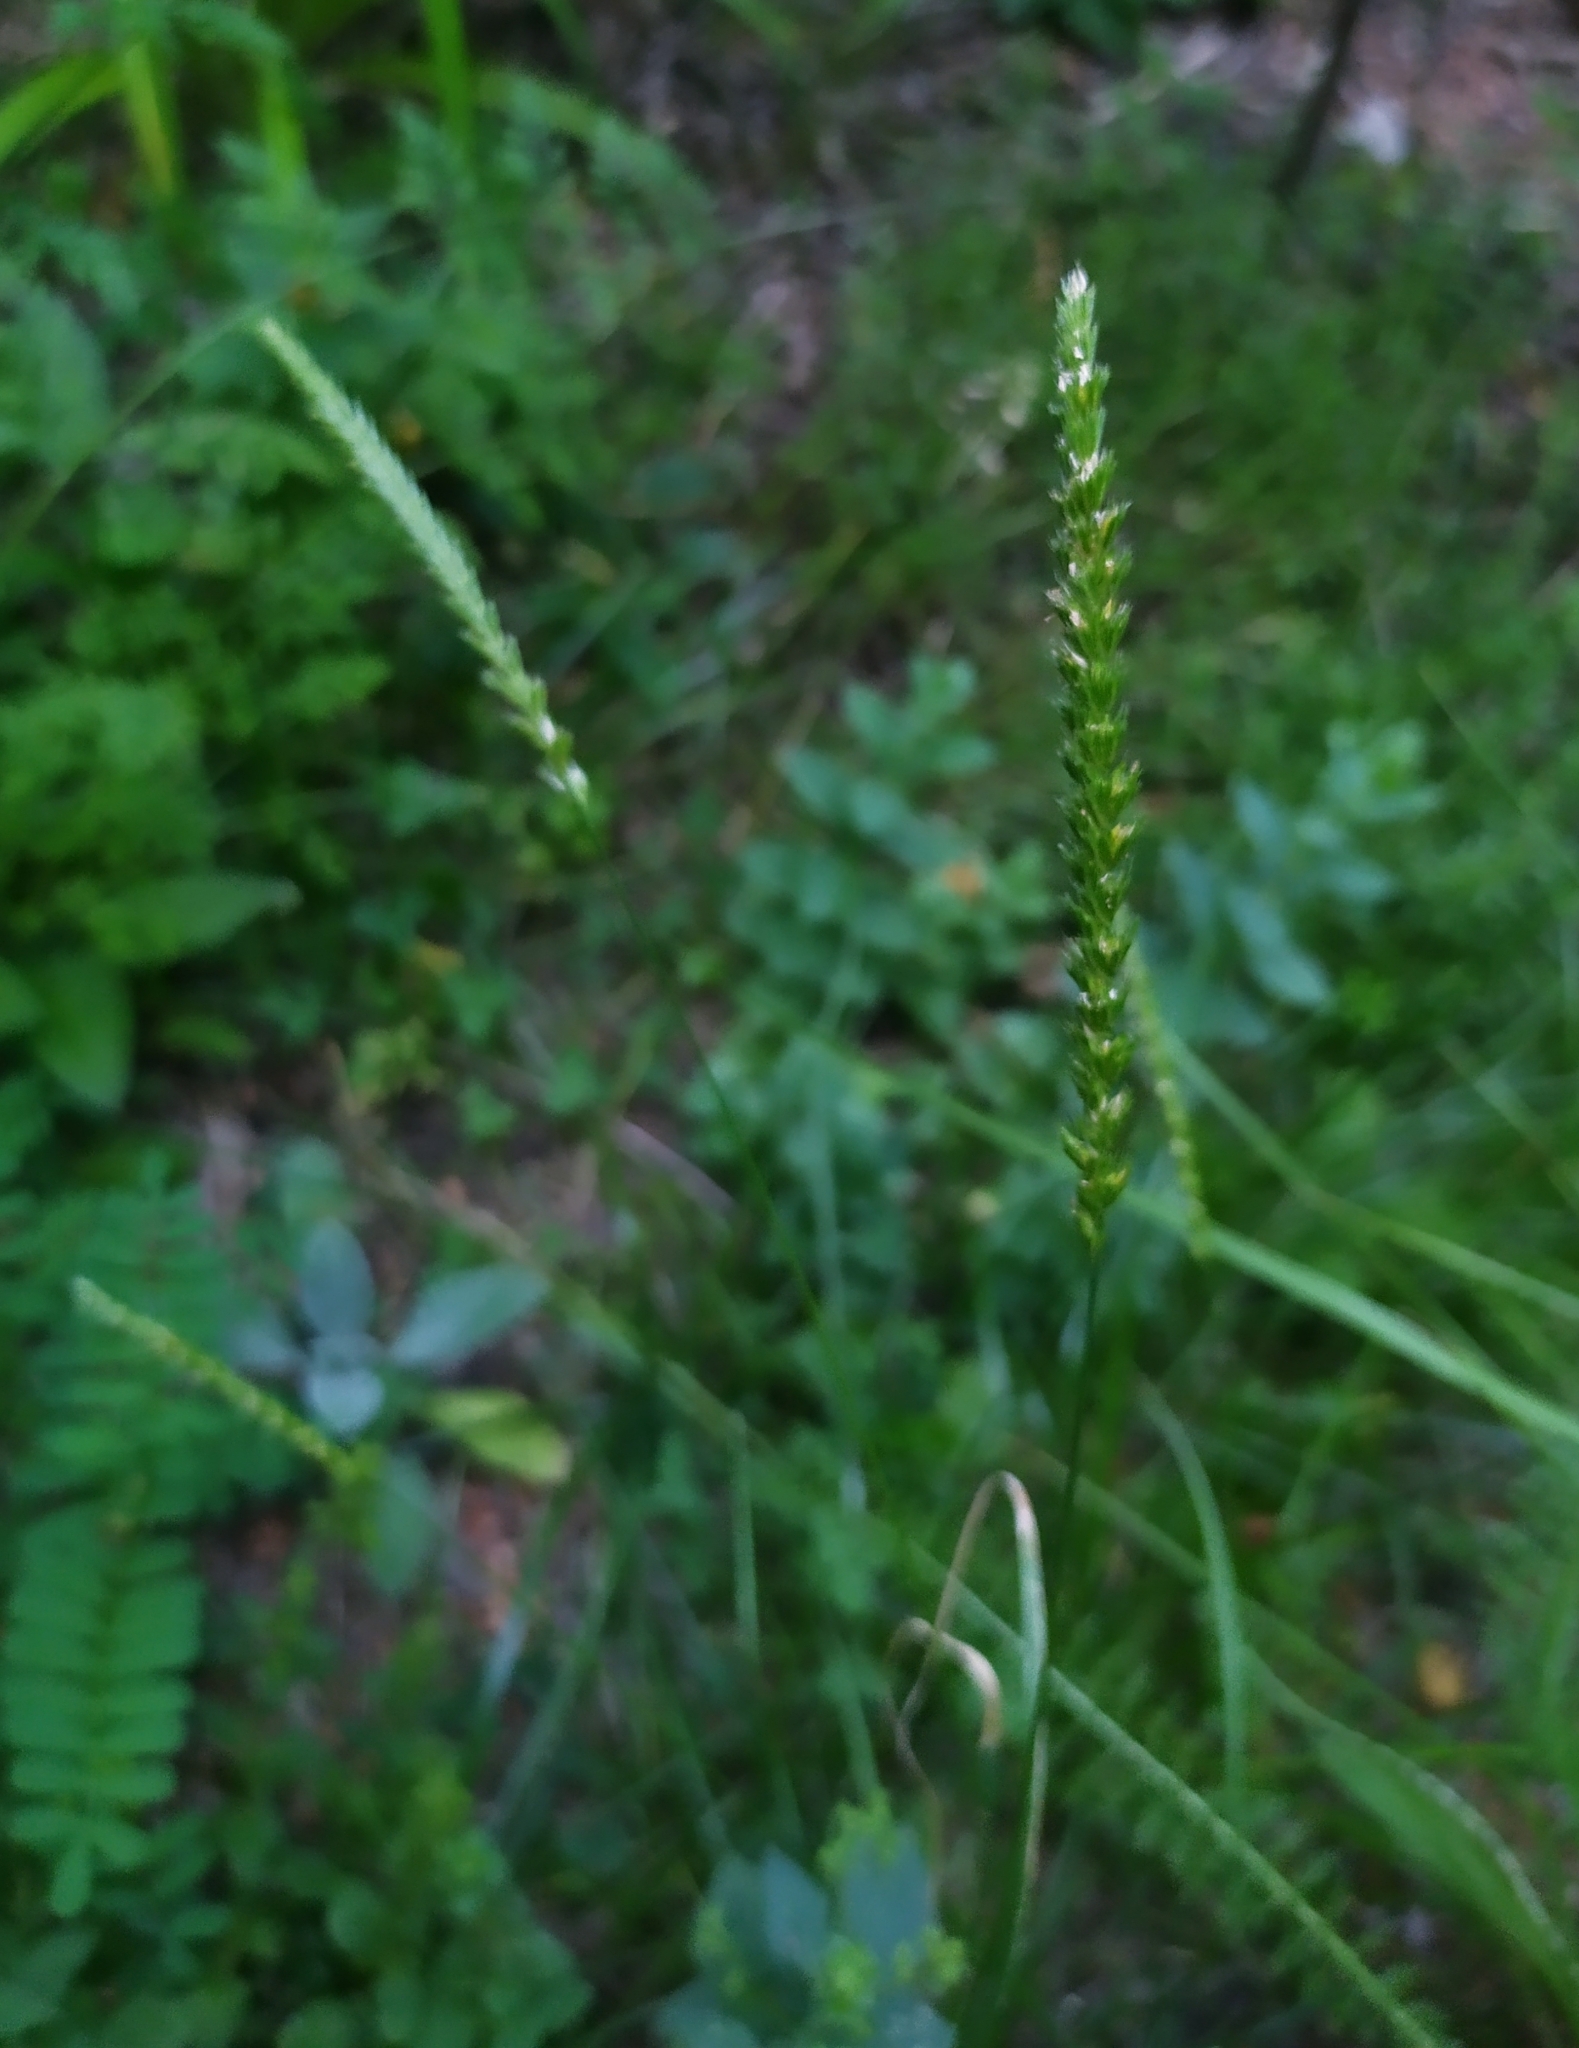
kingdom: Plantae
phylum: Tracheophyta
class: Liliopsida
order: Poales
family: Poaceae
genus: Cynosurus
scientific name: Cynosurus cristatus
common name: Crested dog's-tail
